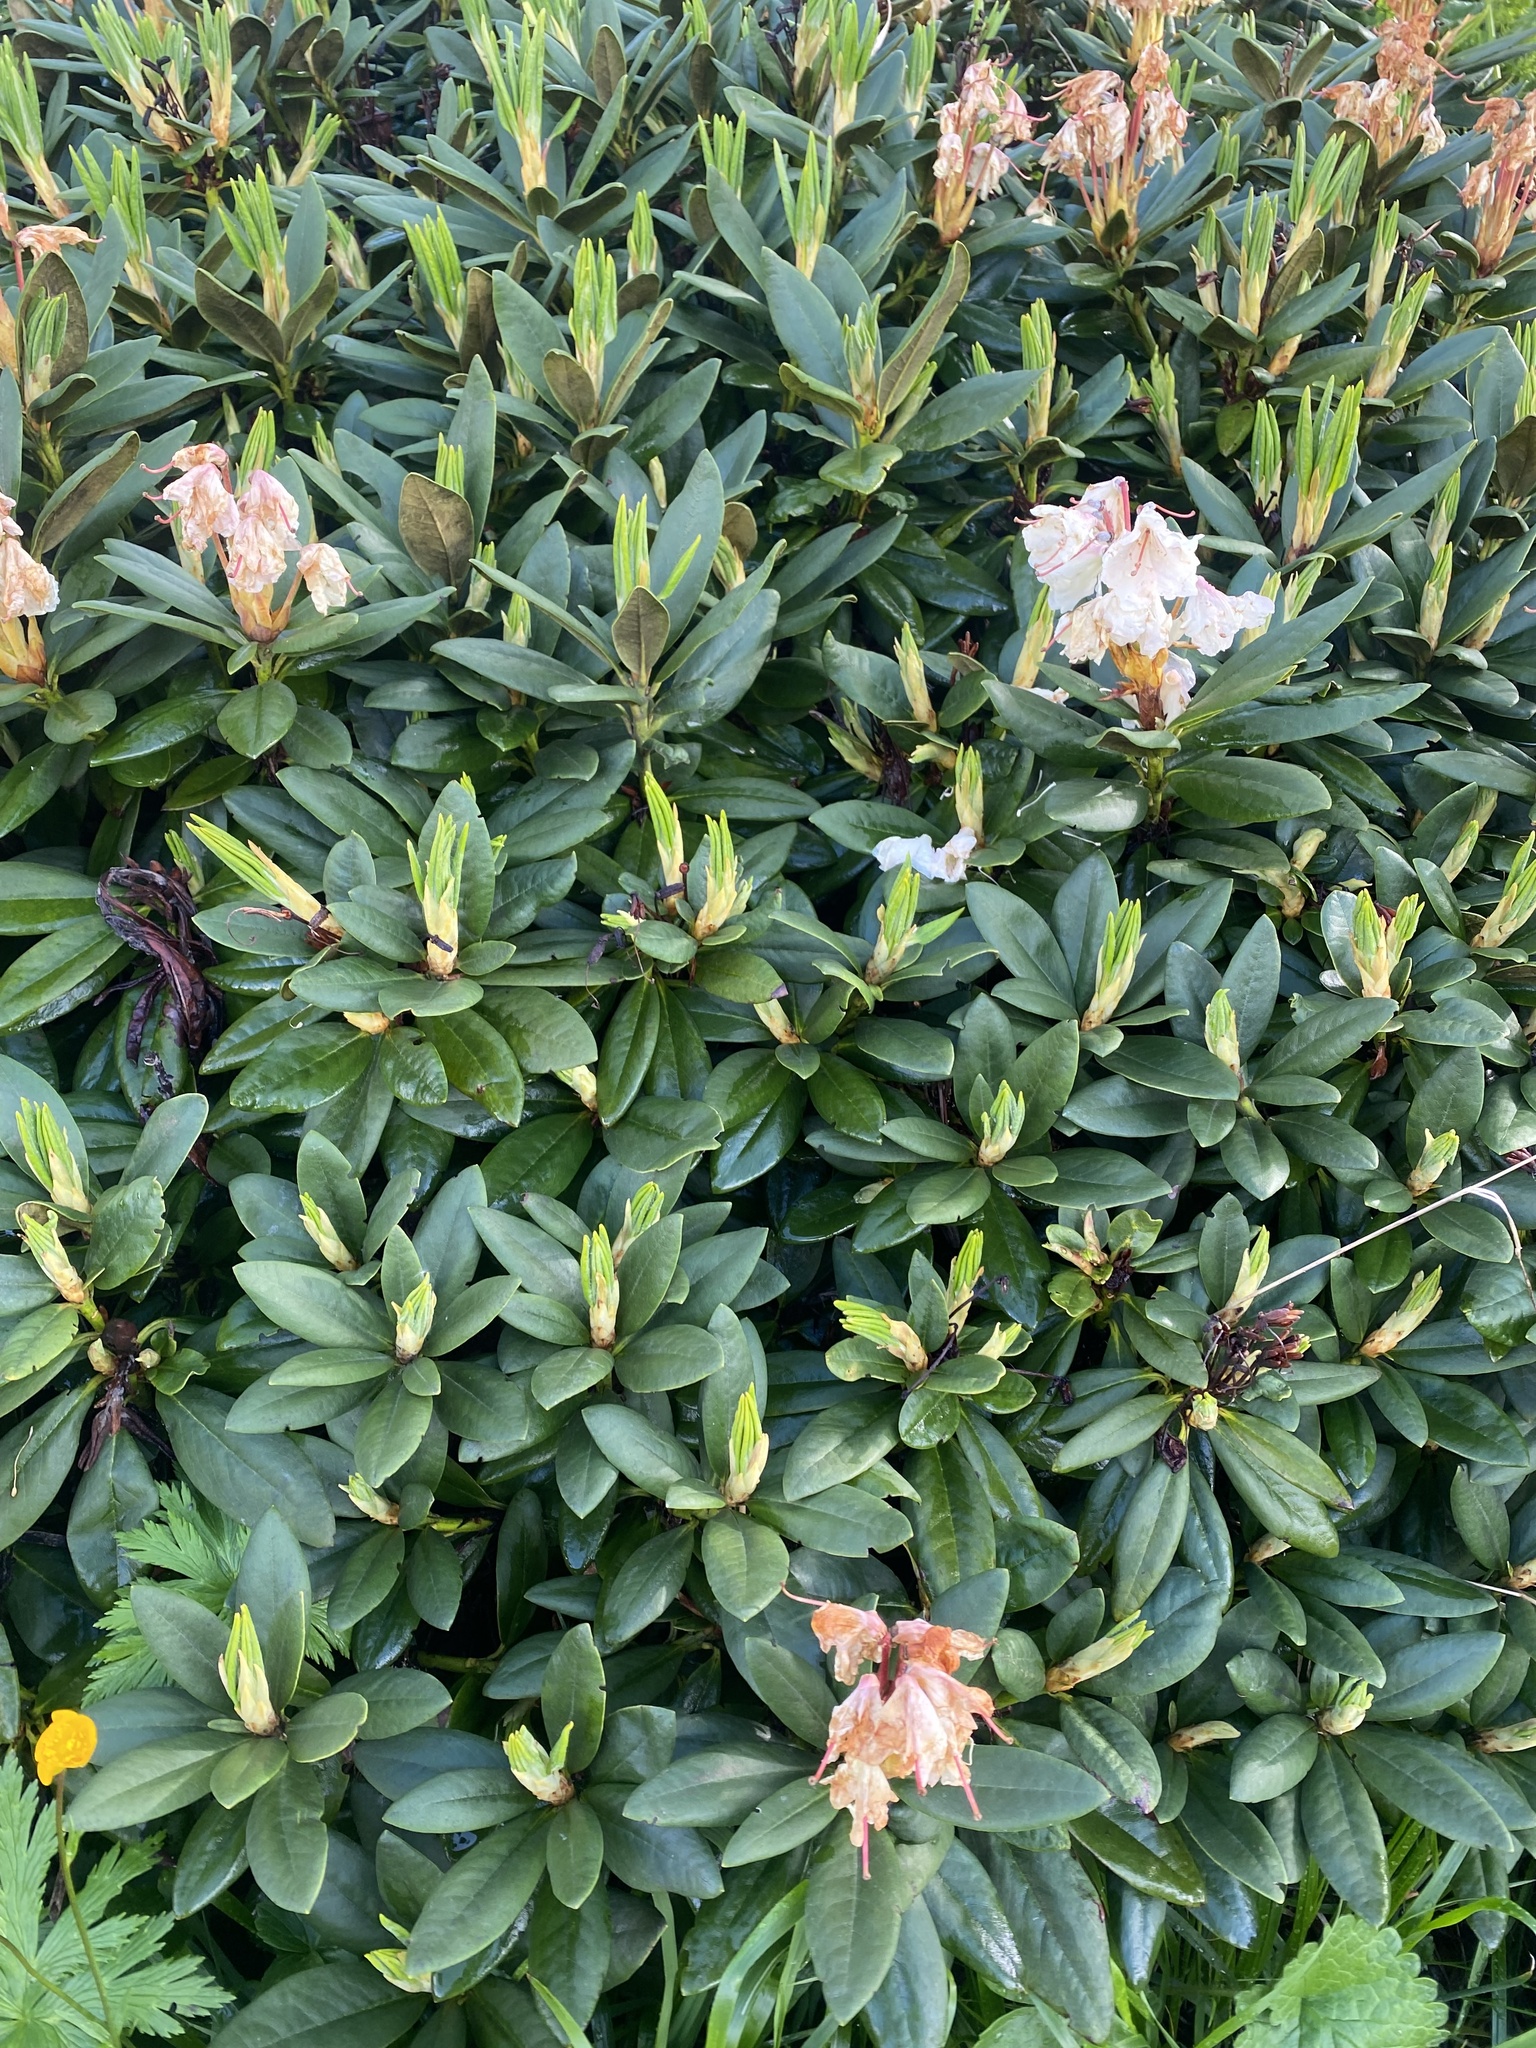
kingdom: Plantae
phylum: Tracheophyta
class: Magnoliopsida
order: Ericales
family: Ericaceae
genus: Rhododendron
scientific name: Rhododendron caucasicum
